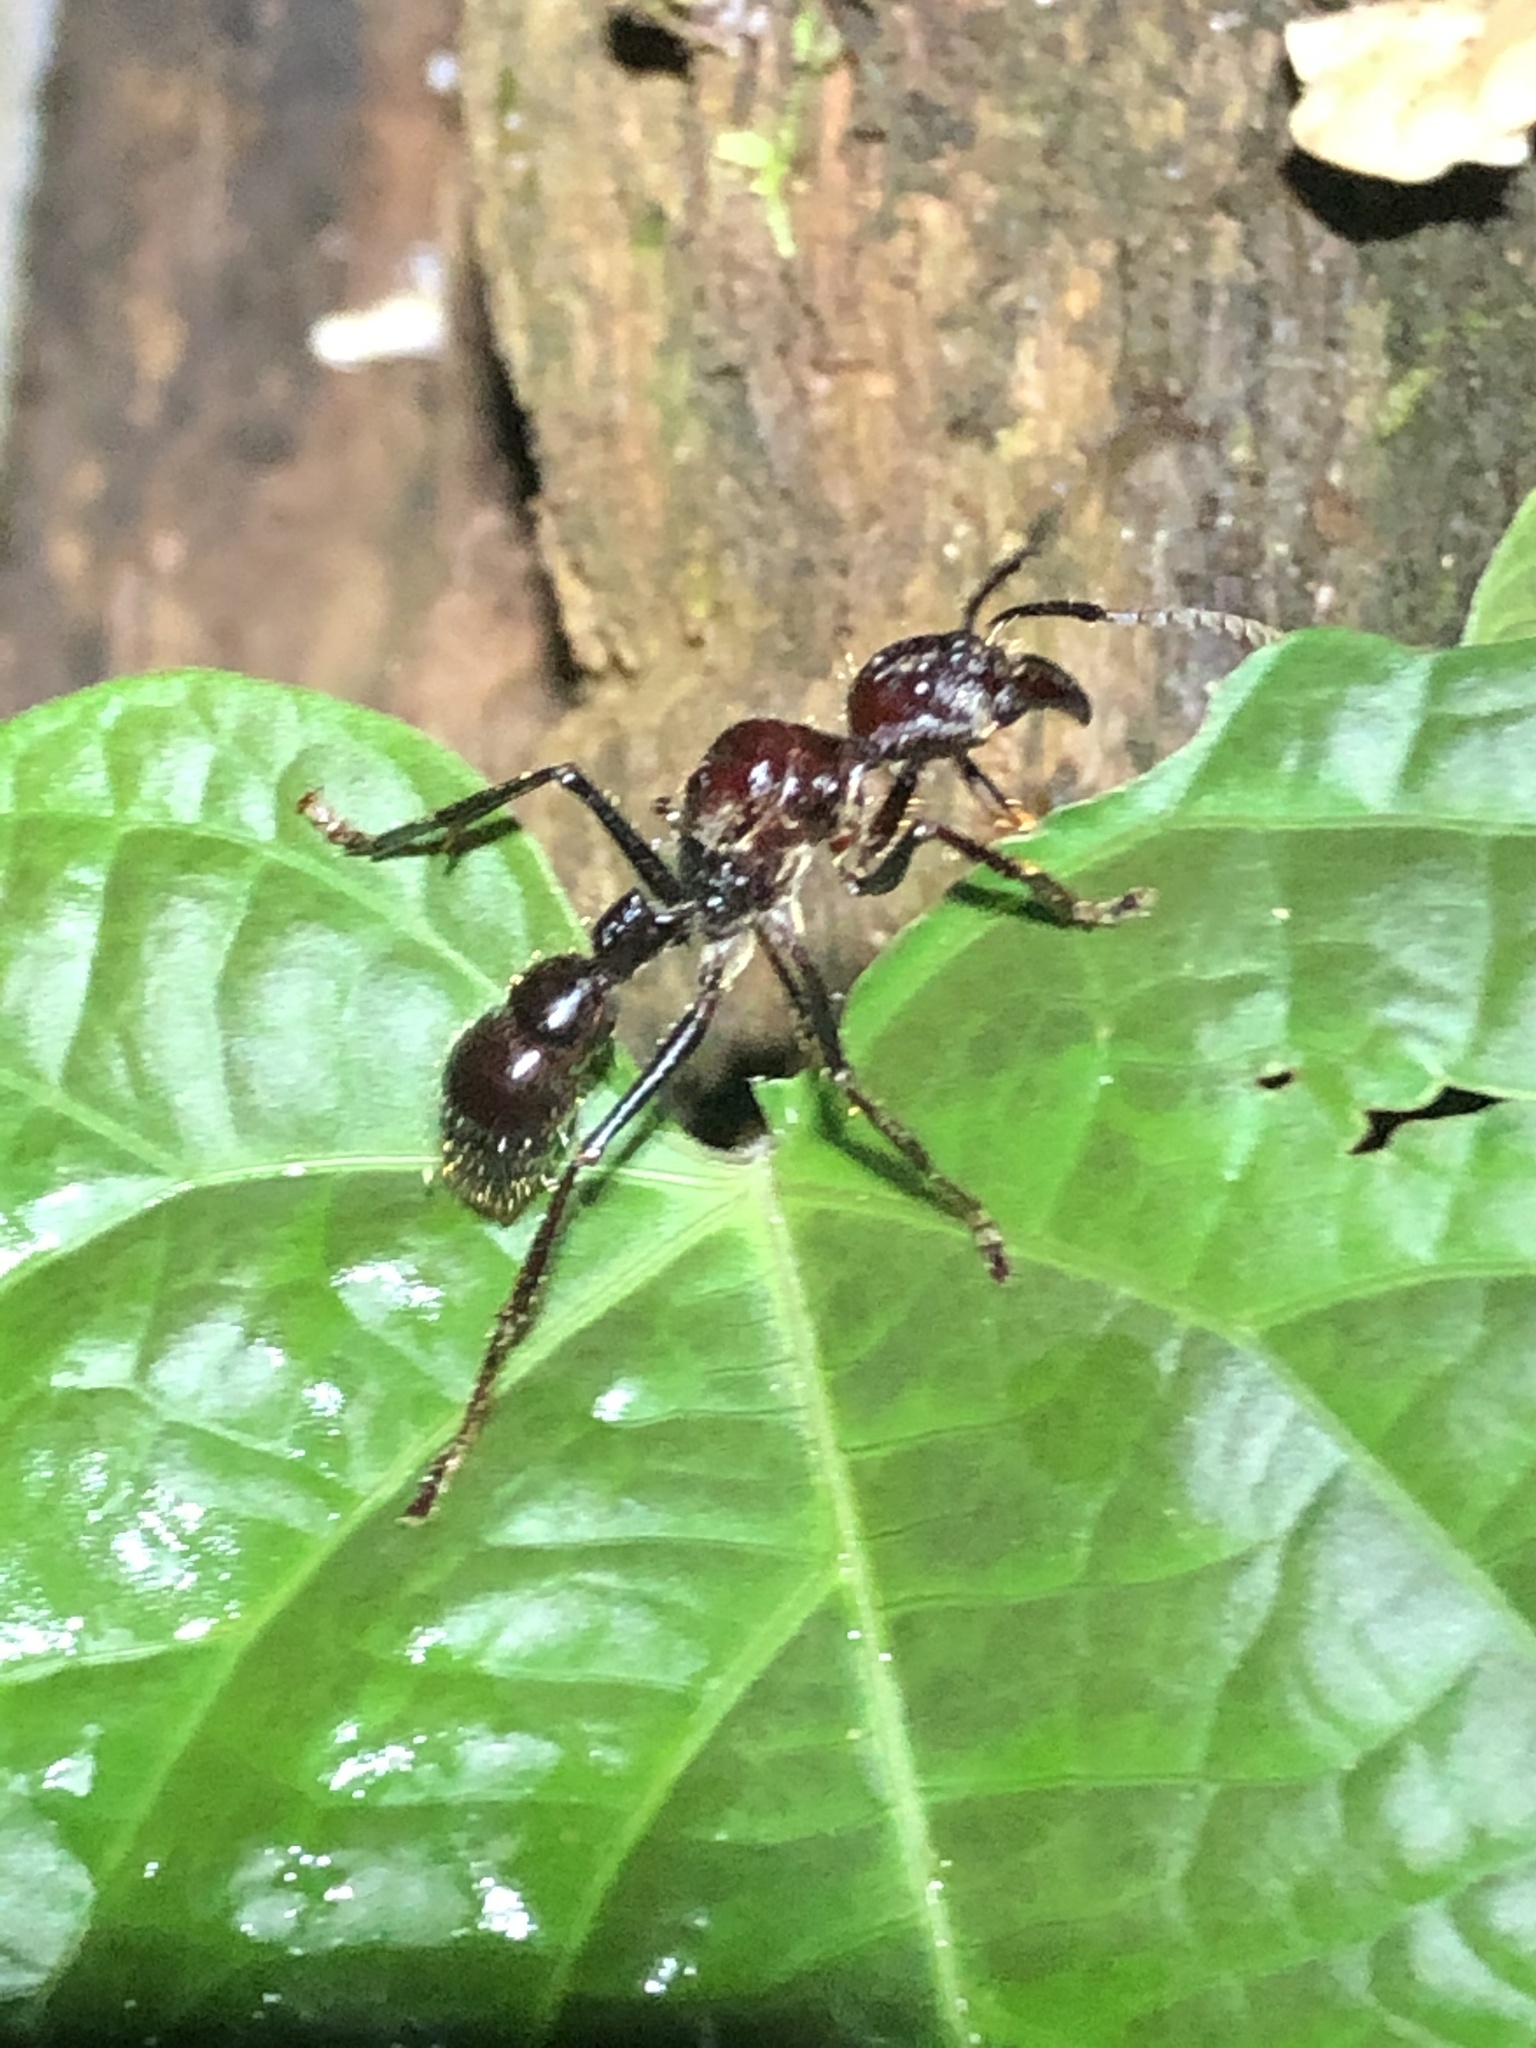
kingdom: Animalia
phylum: Arthropoda
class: Insecta
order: Hymenoptera
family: Formicidae
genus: Paraponera
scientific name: Paraponera clavata
